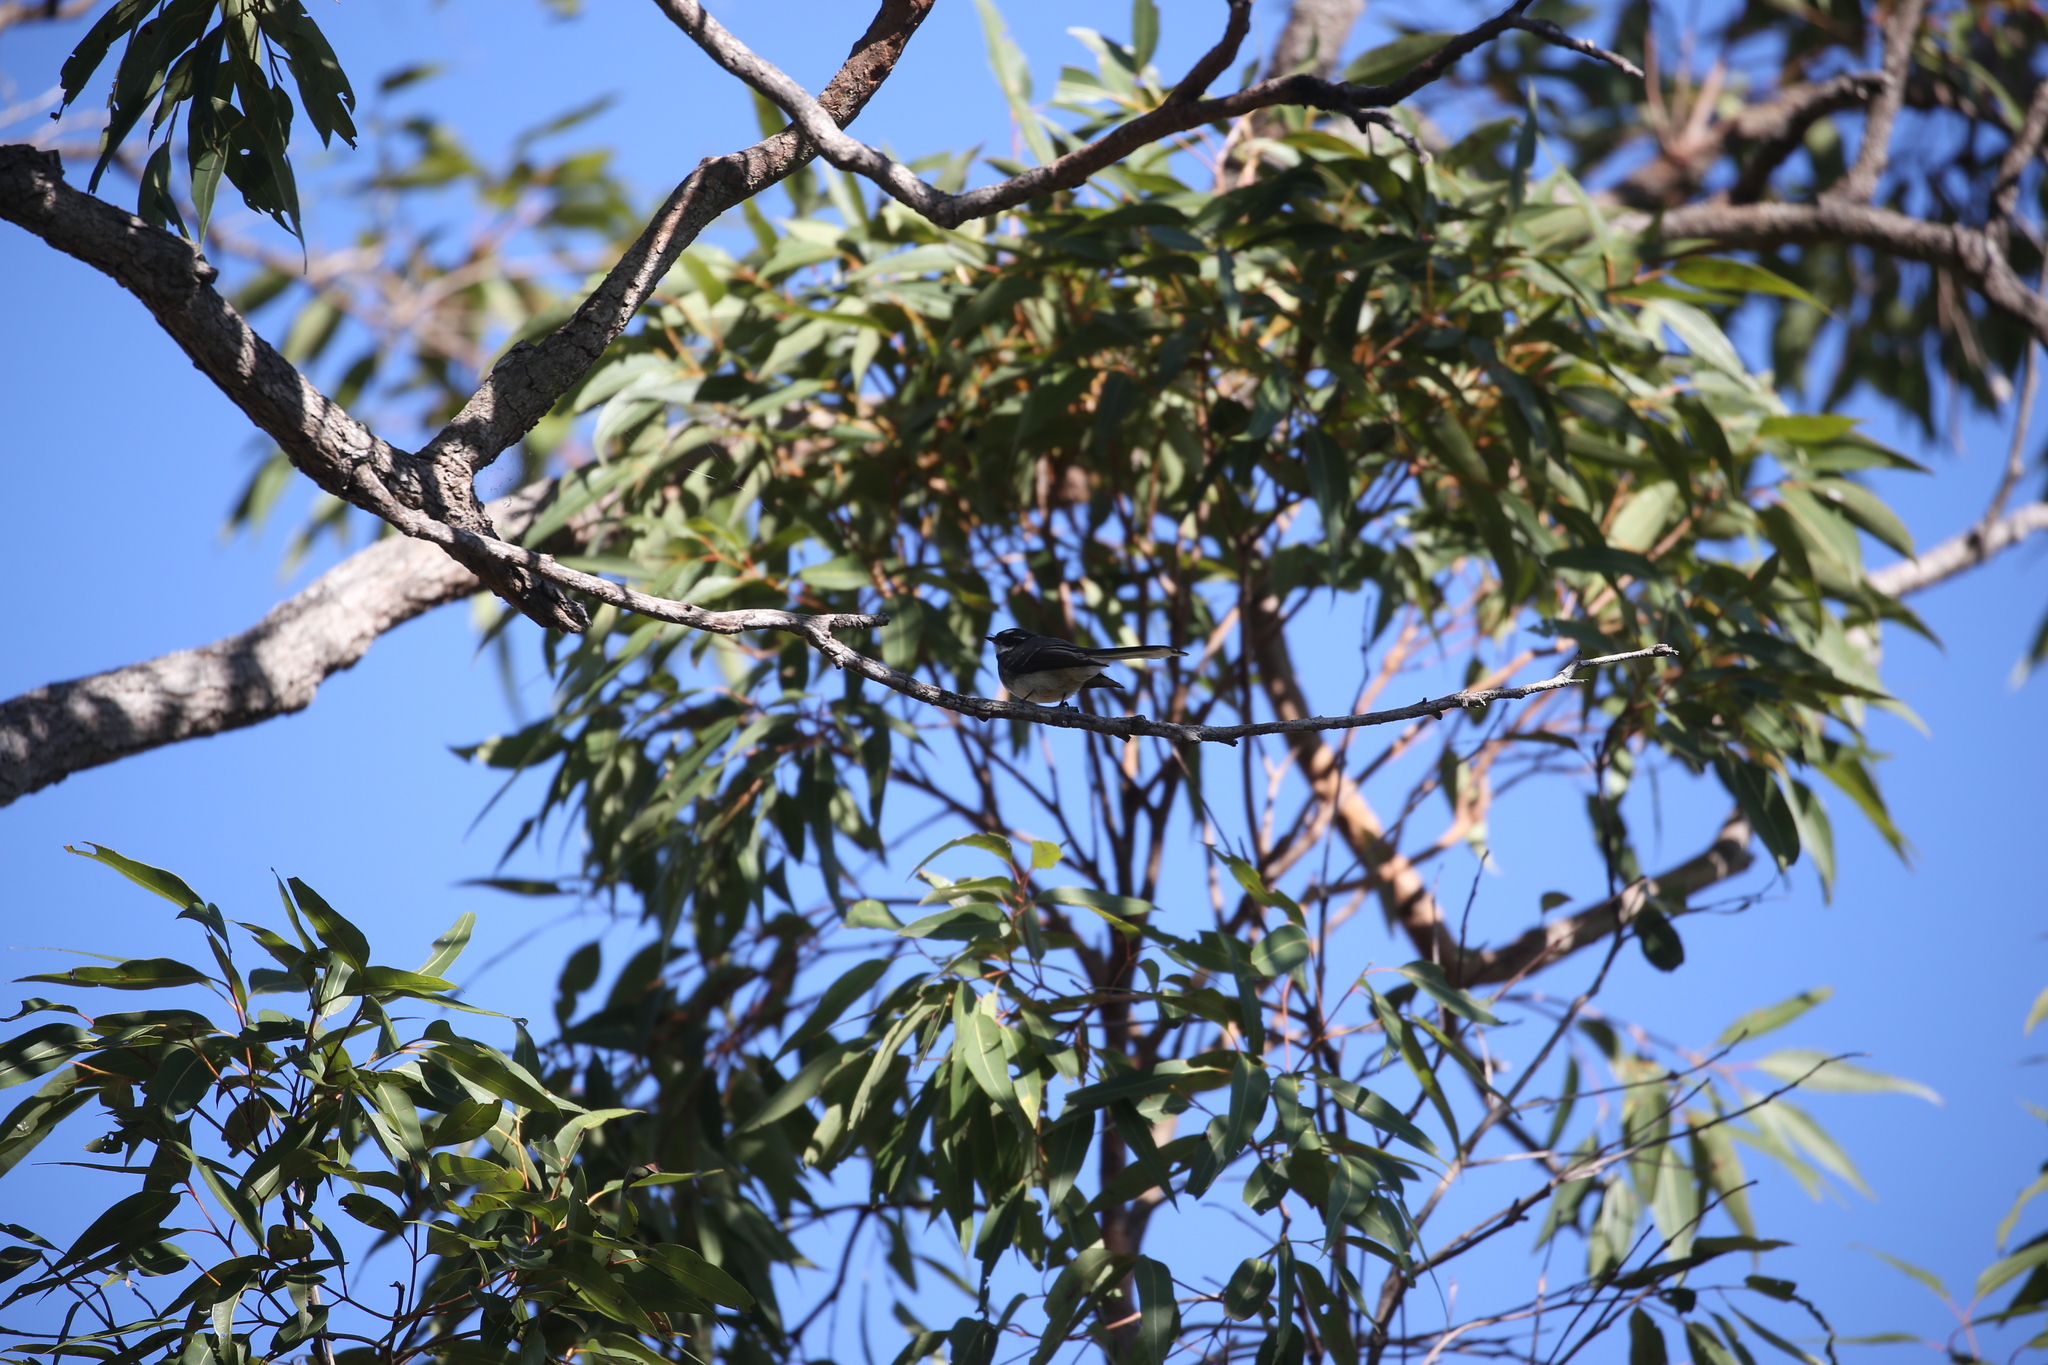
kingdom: Animalia
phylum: Chordata
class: Aves
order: Passeriformes
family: Rhipiduridae
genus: Rhipidura
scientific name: Rhipidura albiscapa
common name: Grey fantail
